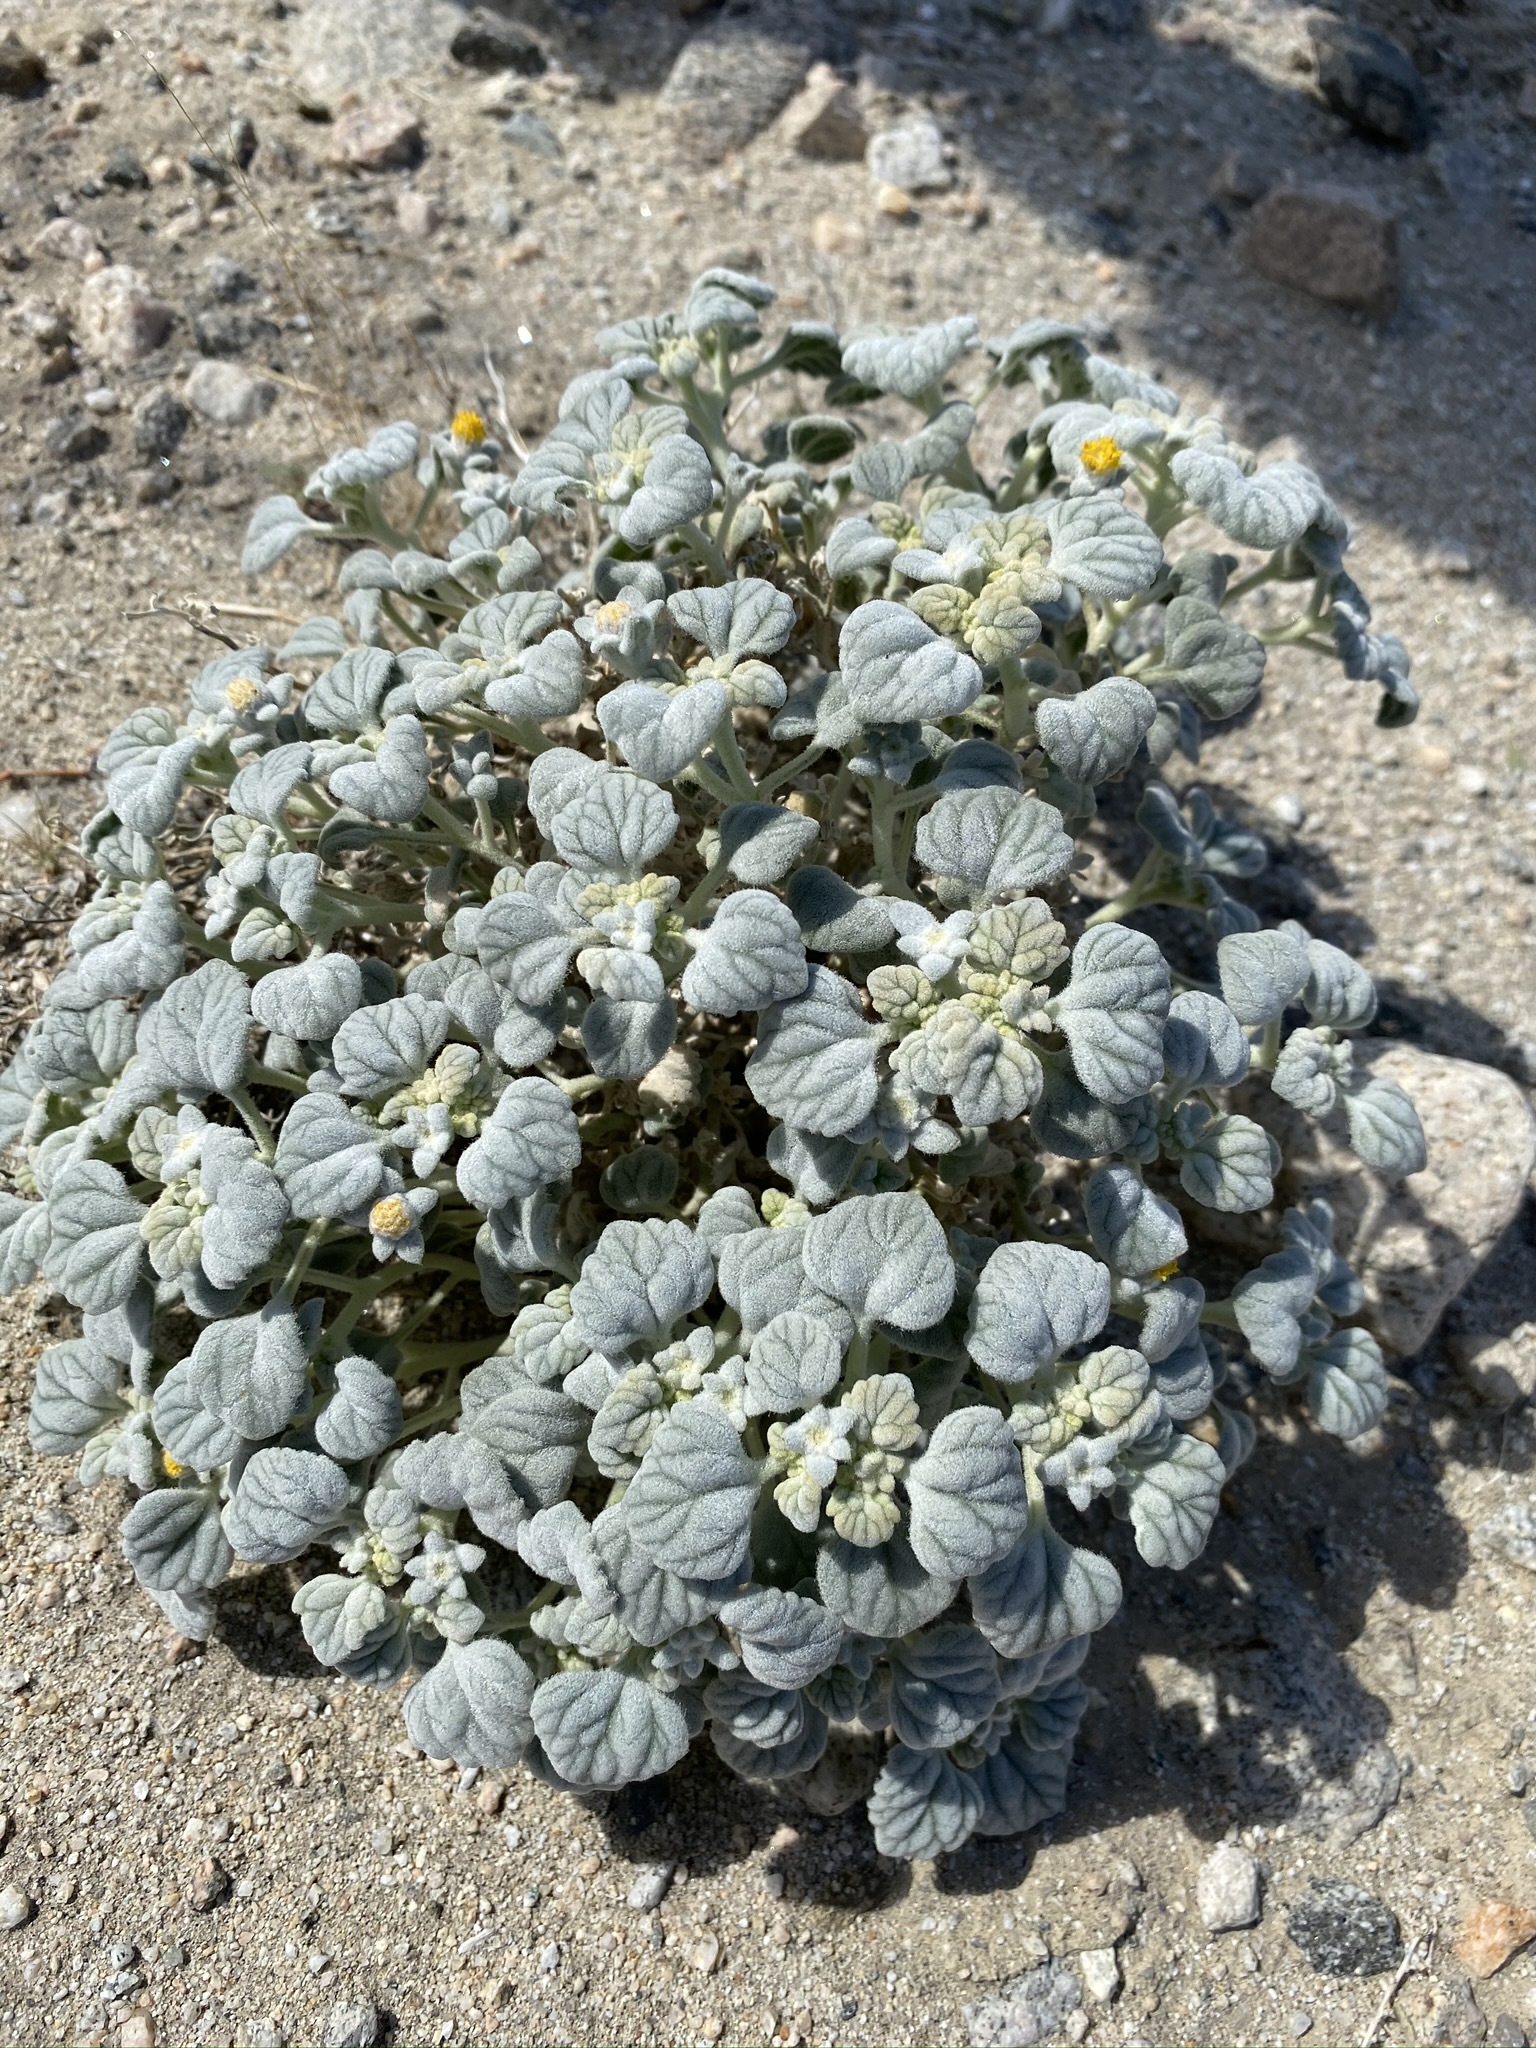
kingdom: Plantae
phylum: Tracheophyta
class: Magnoliopsida
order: Asterales
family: Asteraceae
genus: Psathyrotes
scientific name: Psathyrotes ramosissima
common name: Turtleback
